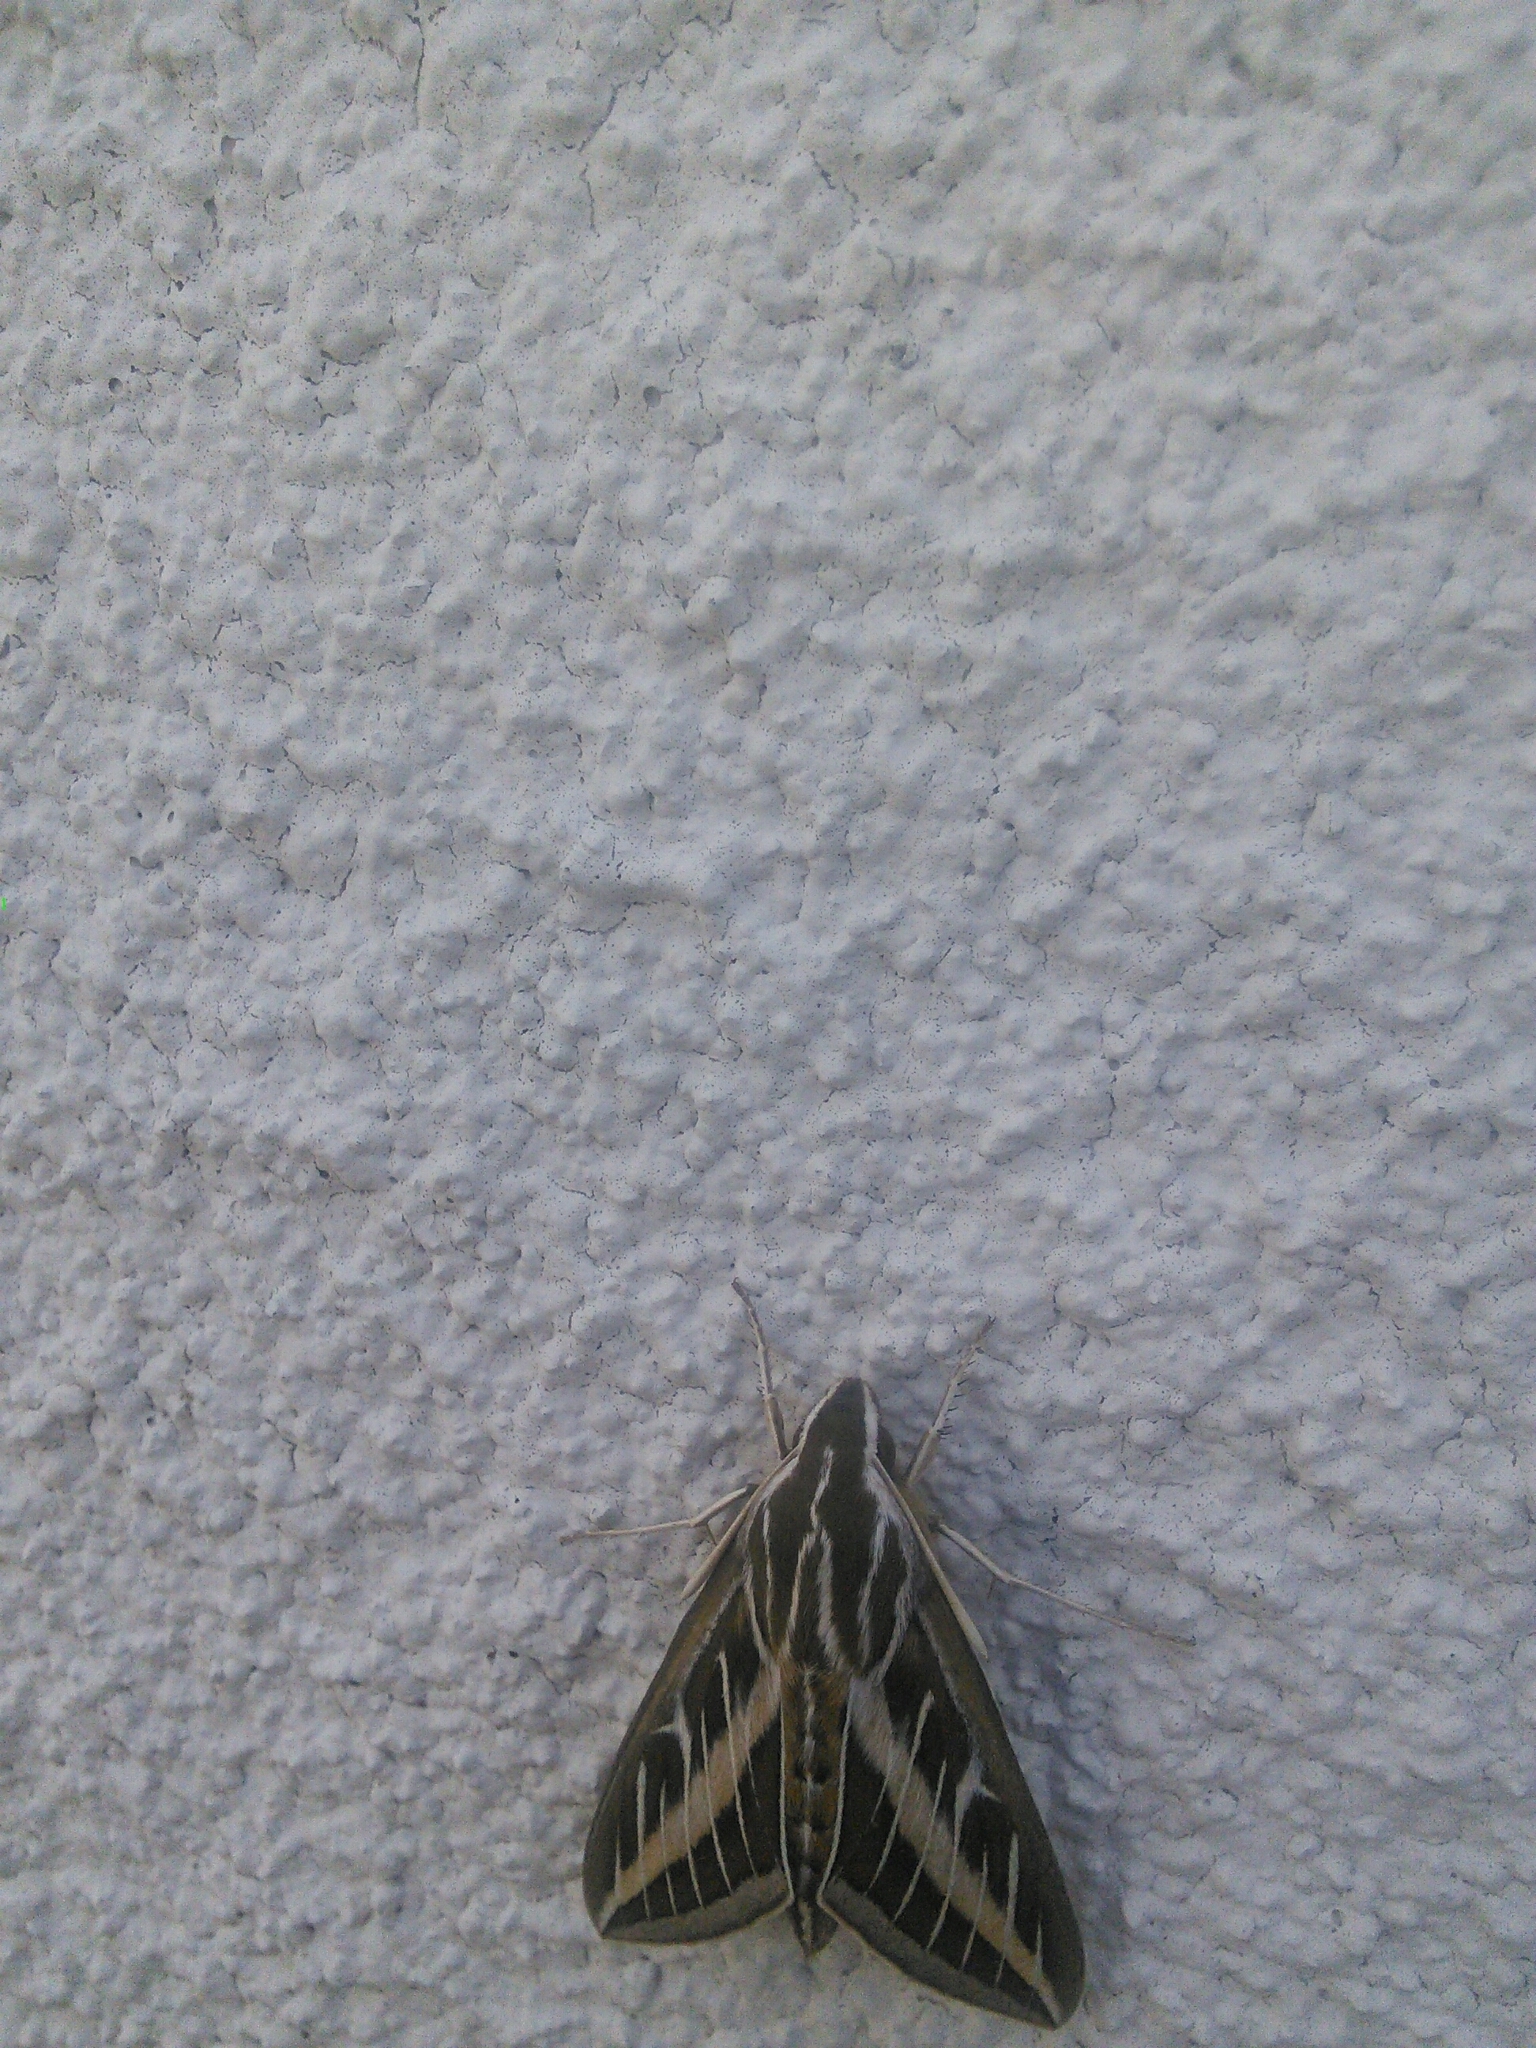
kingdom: Animalia
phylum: Arthropoda
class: Insecta
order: Lepidoptera
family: Sphingidae
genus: Hyles
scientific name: Hyles lineata
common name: White-lined sphinx
